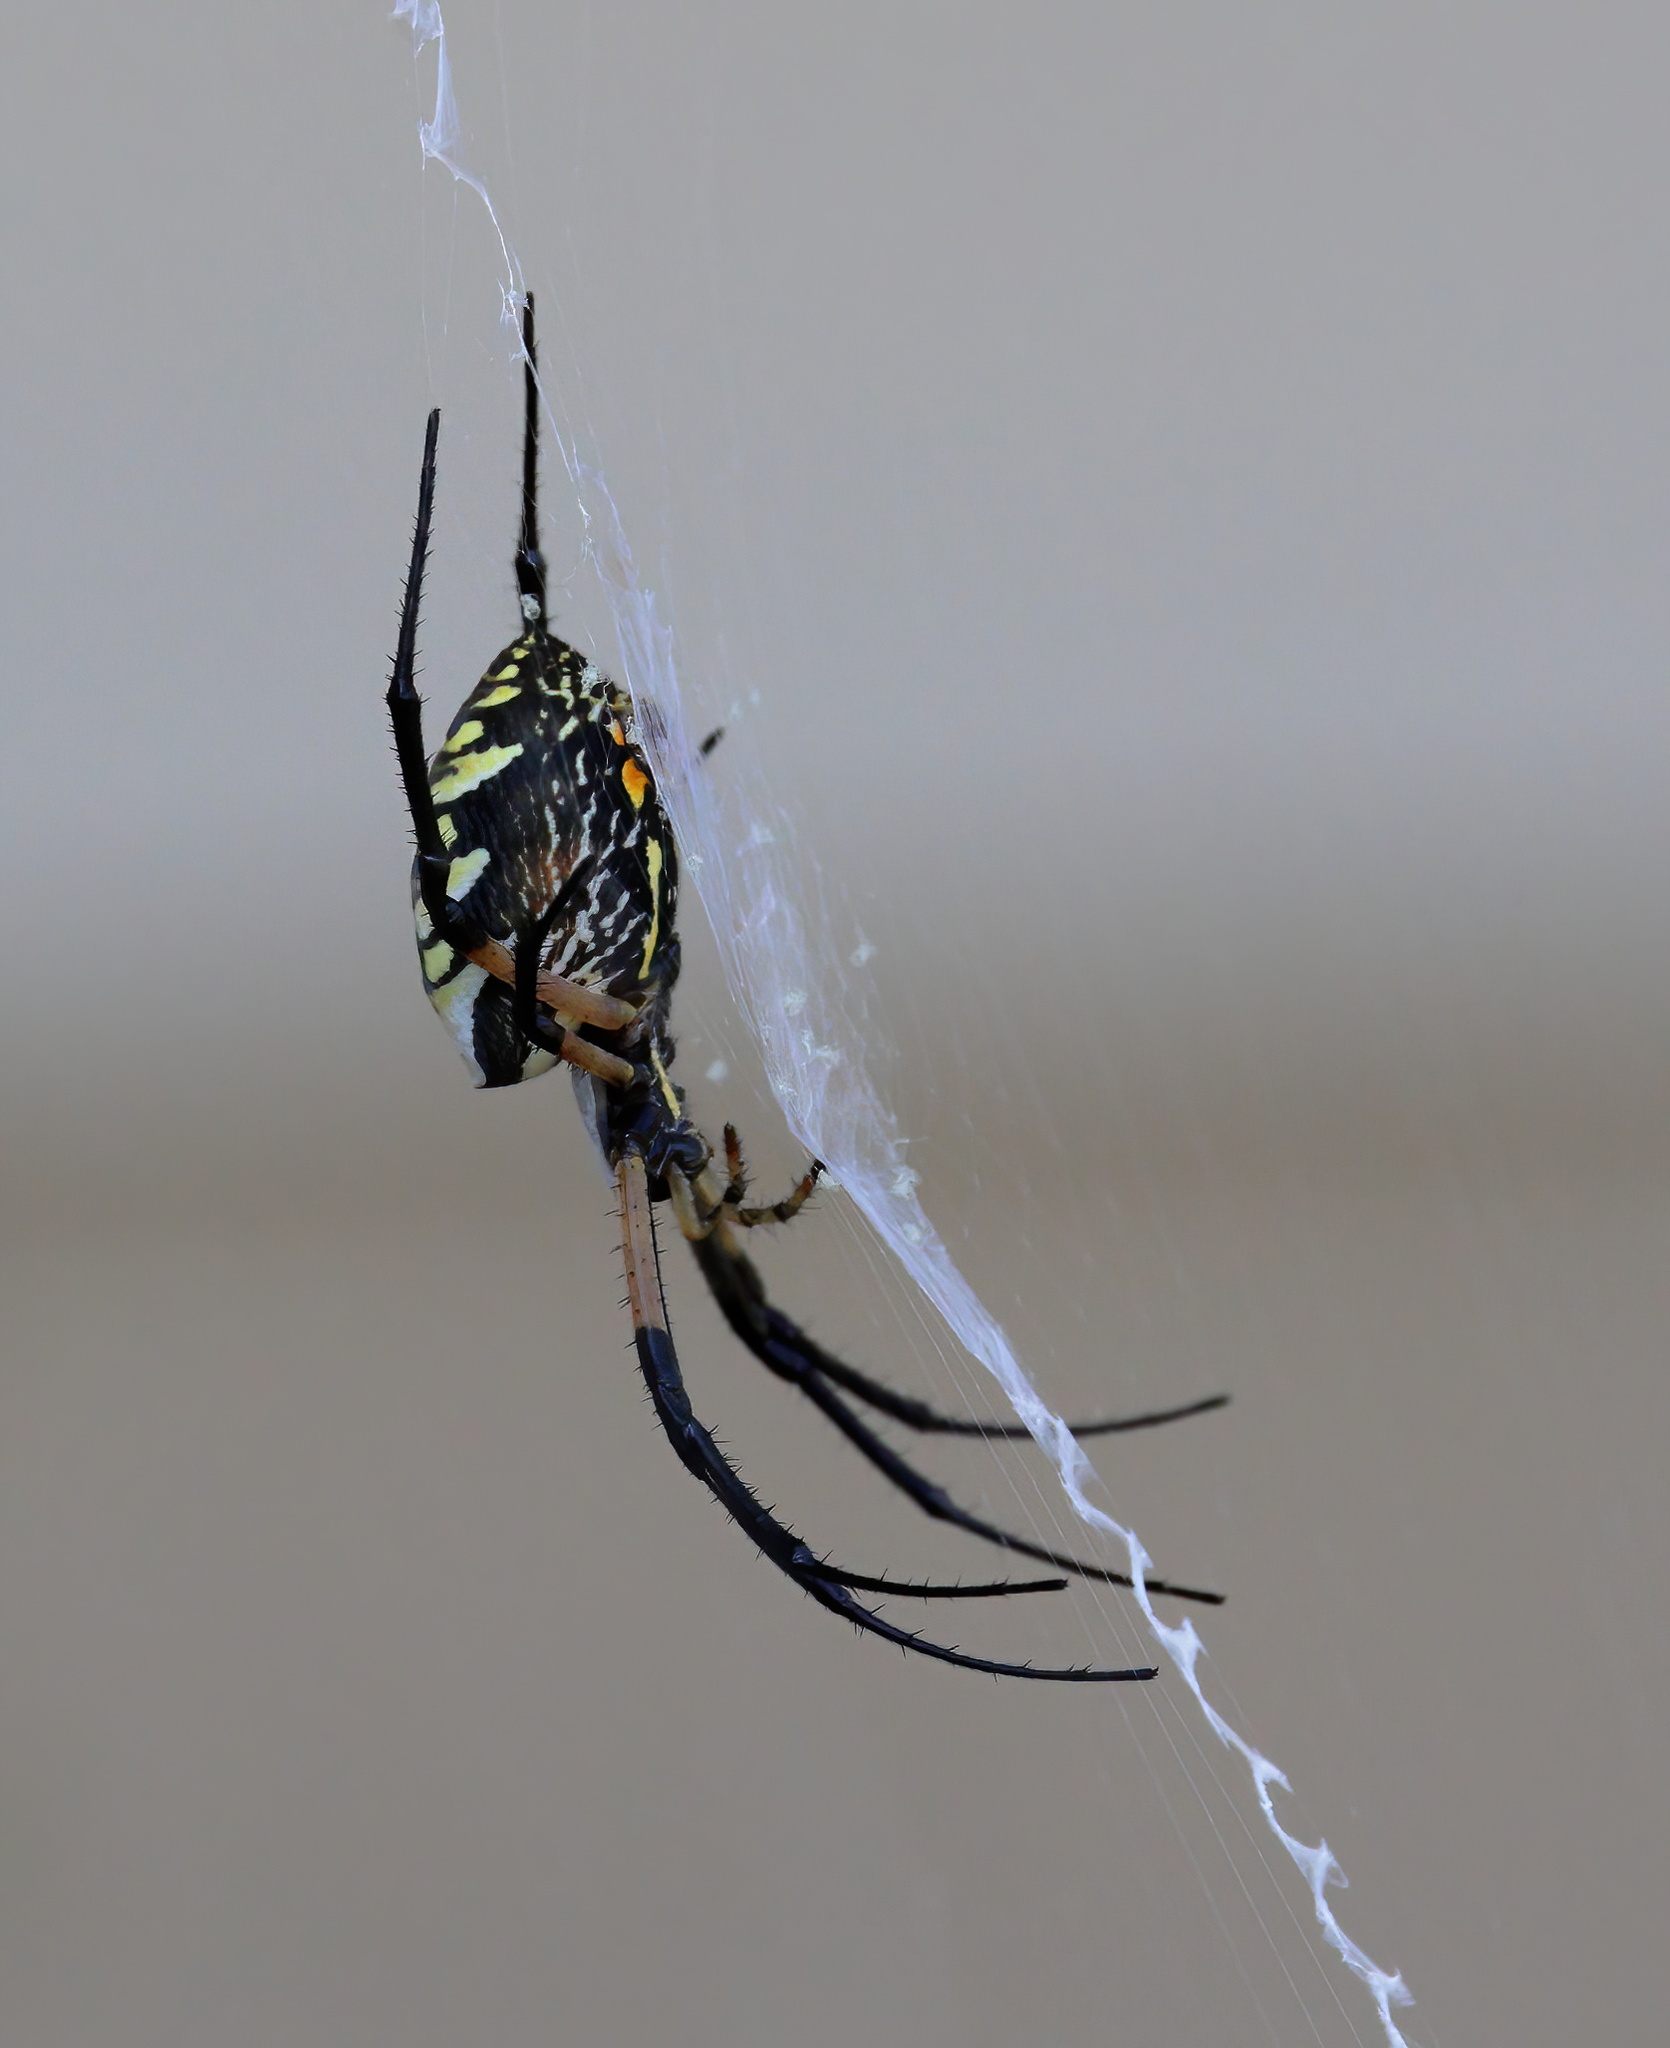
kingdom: Animalia
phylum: Arthropoda
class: Arachnida
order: Araneae
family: Araneidae
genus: Argiope
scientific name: Argiope aurantia
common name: Orb weavers
